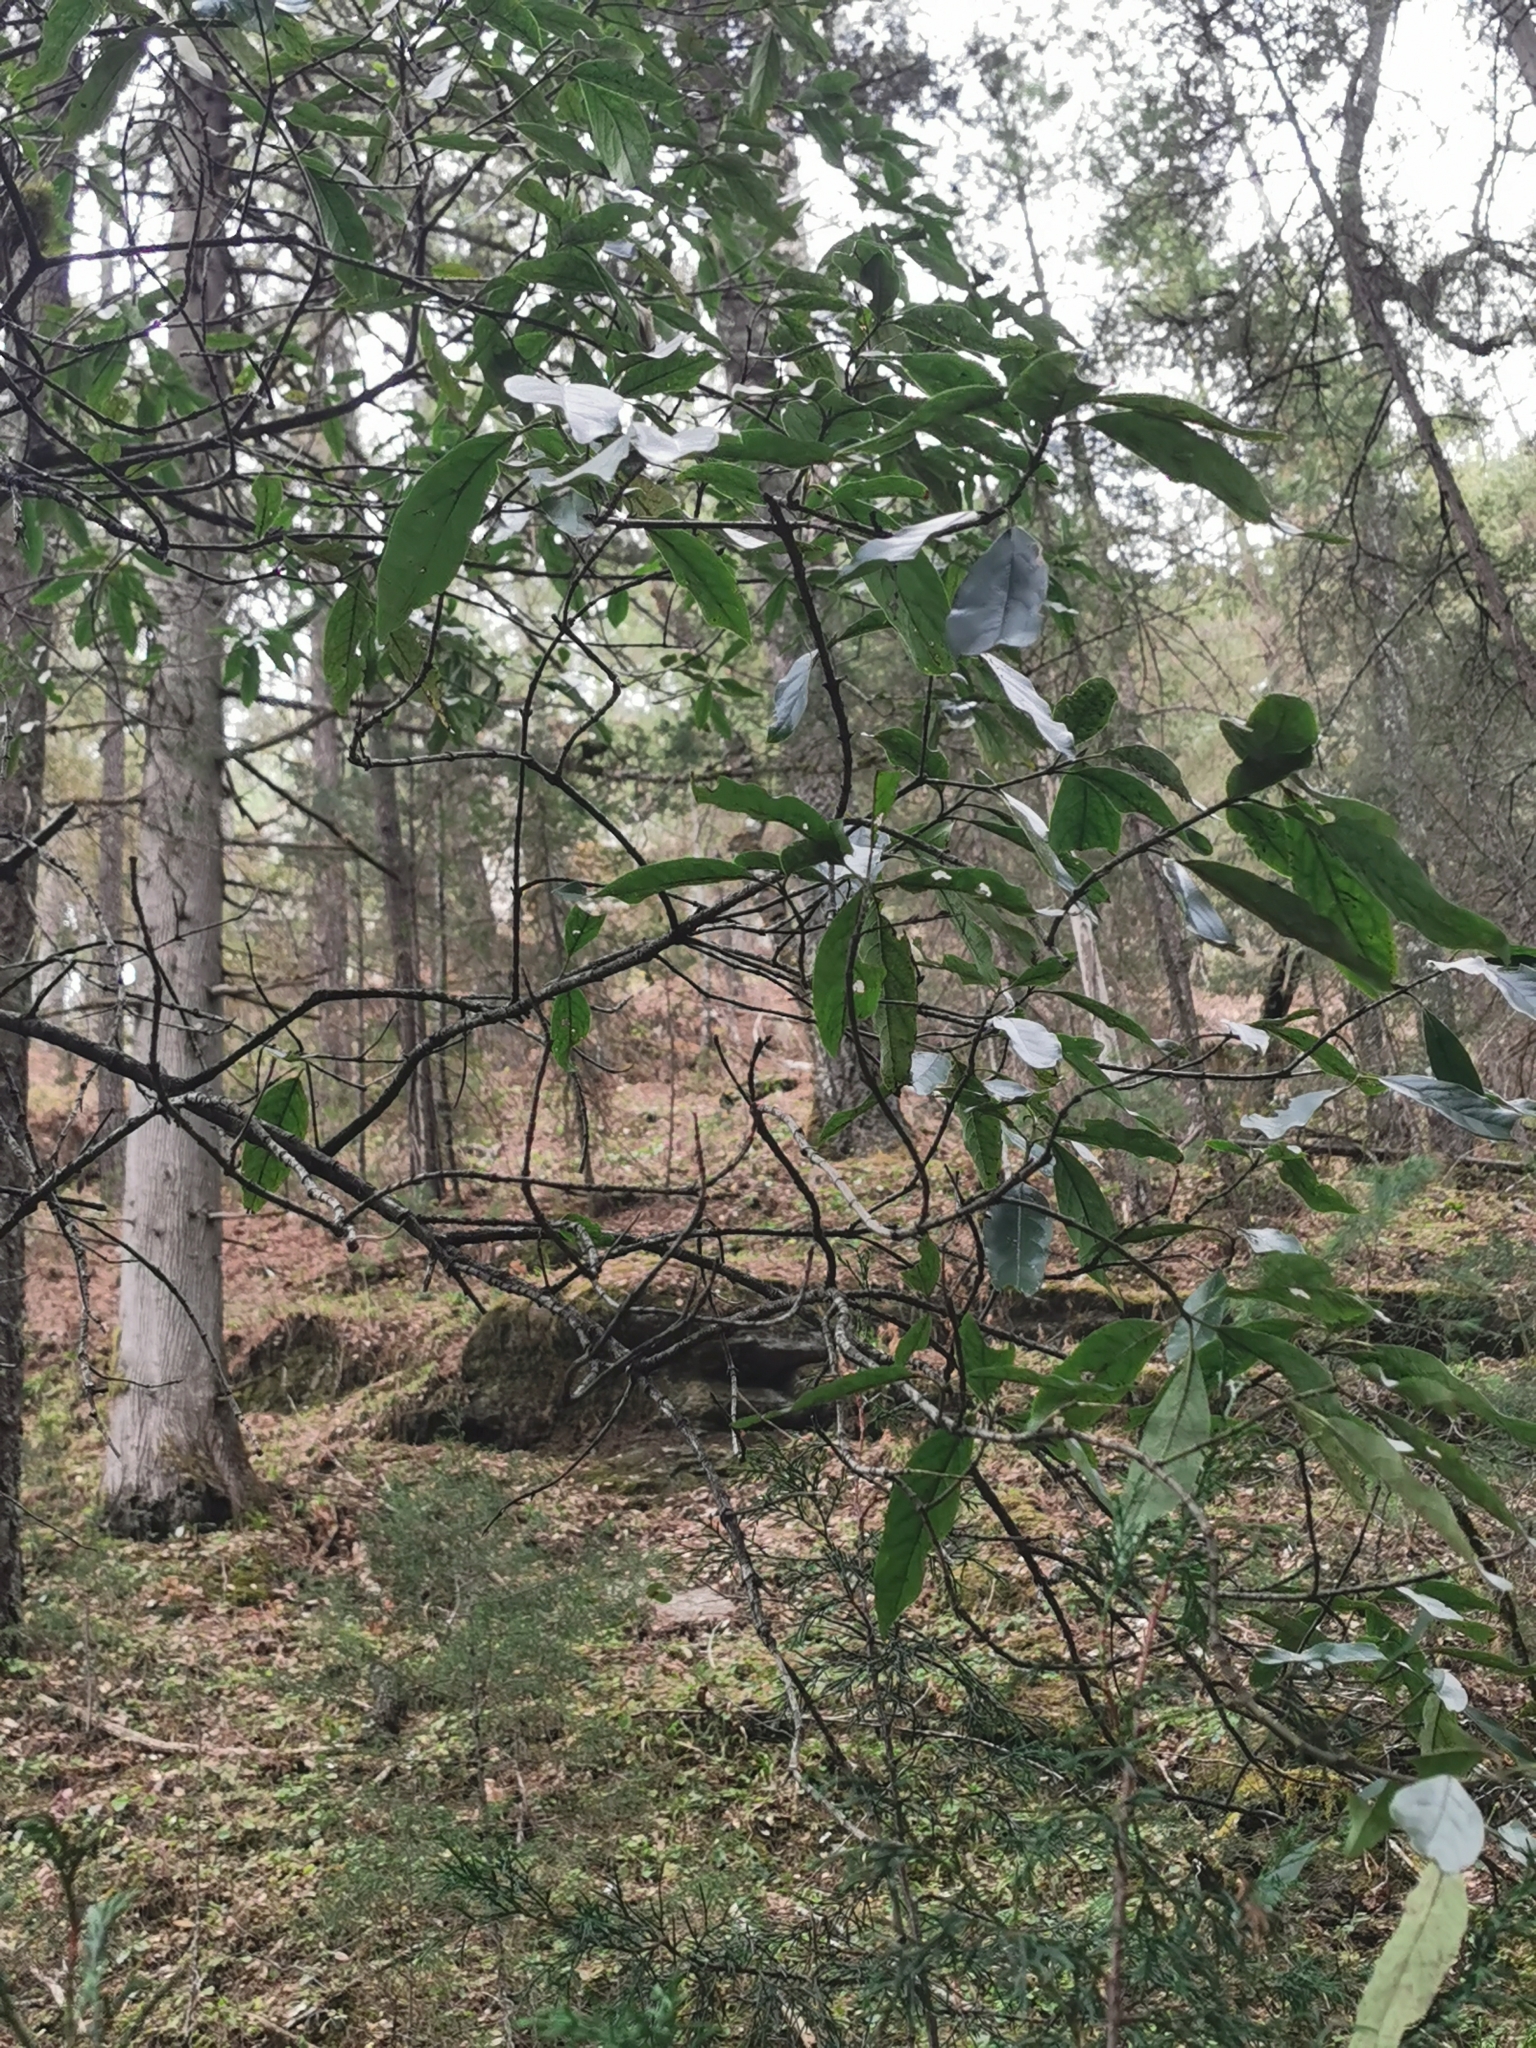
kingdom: Plantae
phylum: Tracheophyta
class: Magnoliopsida
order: Garryales
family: Garryaceae
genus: Garrya
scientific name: Garrya longifolia
